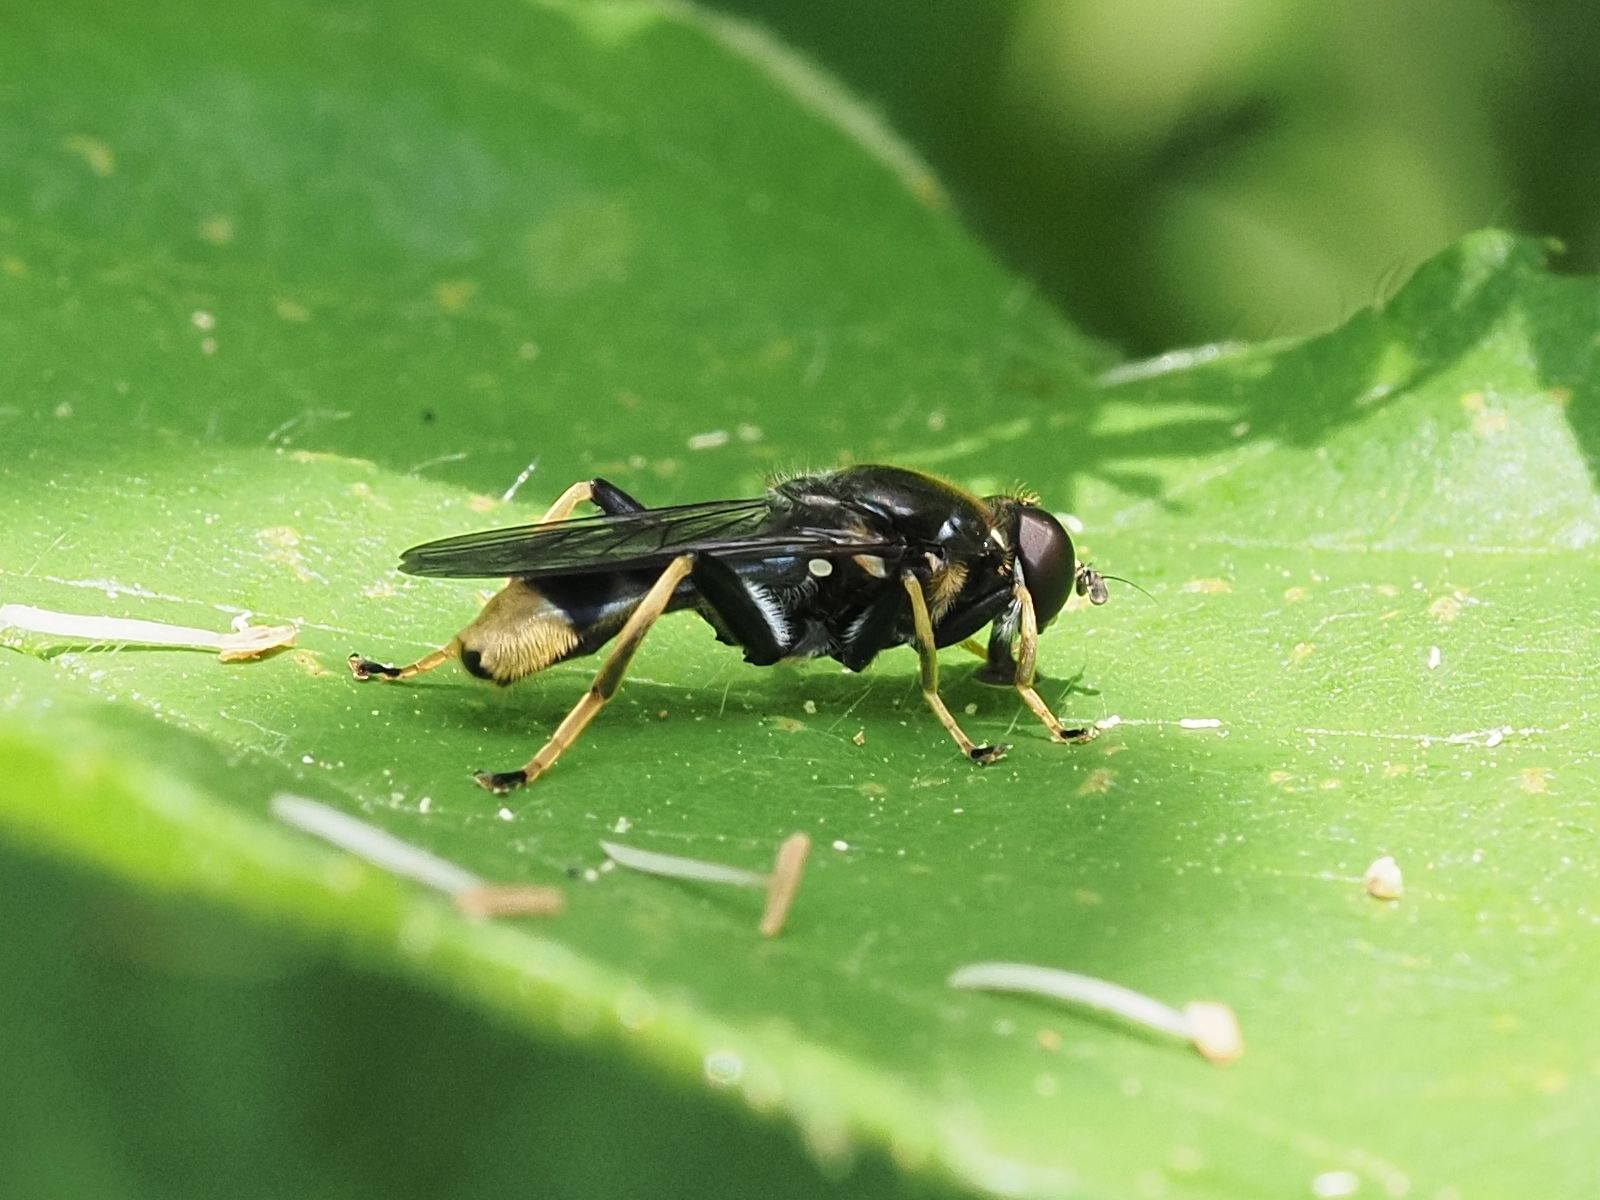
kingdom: Animalia
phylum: Arthropoda
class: Insecta
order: Diptera
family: Syrphidae
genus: Xylota
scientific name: Xylota sylvarum
